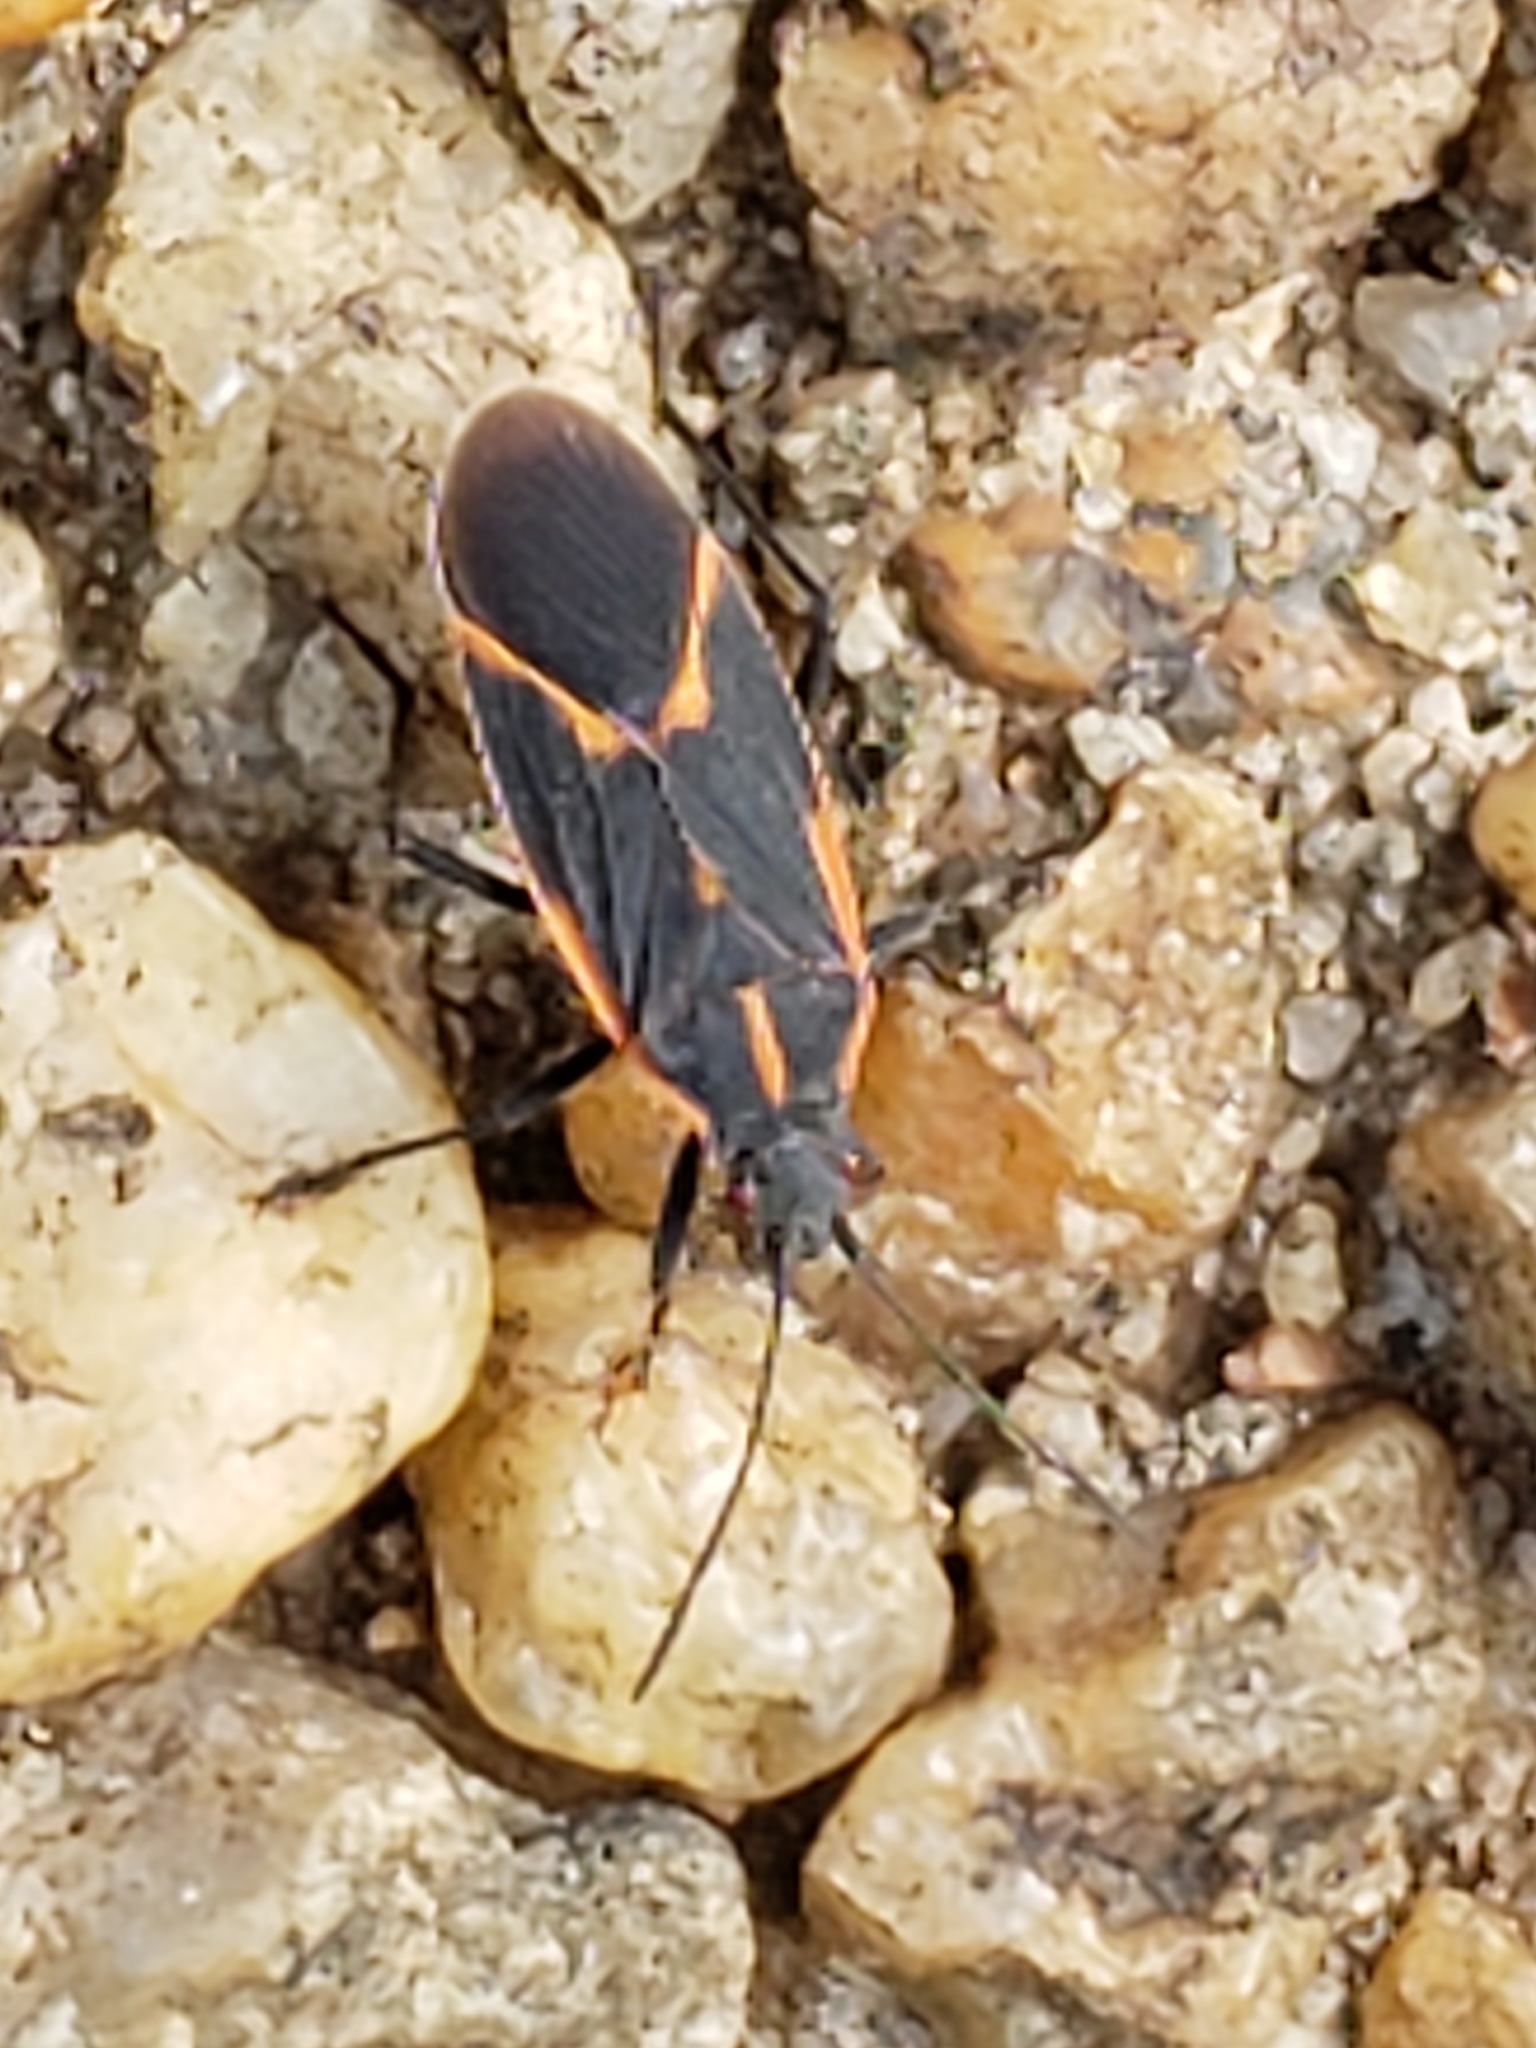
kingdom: Animalia
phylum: Arthropoda
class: Insecta
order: Hemiptera
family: Rhopalidae
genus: Boisea
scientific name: Boisea trivittata
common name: Boxelder bug
